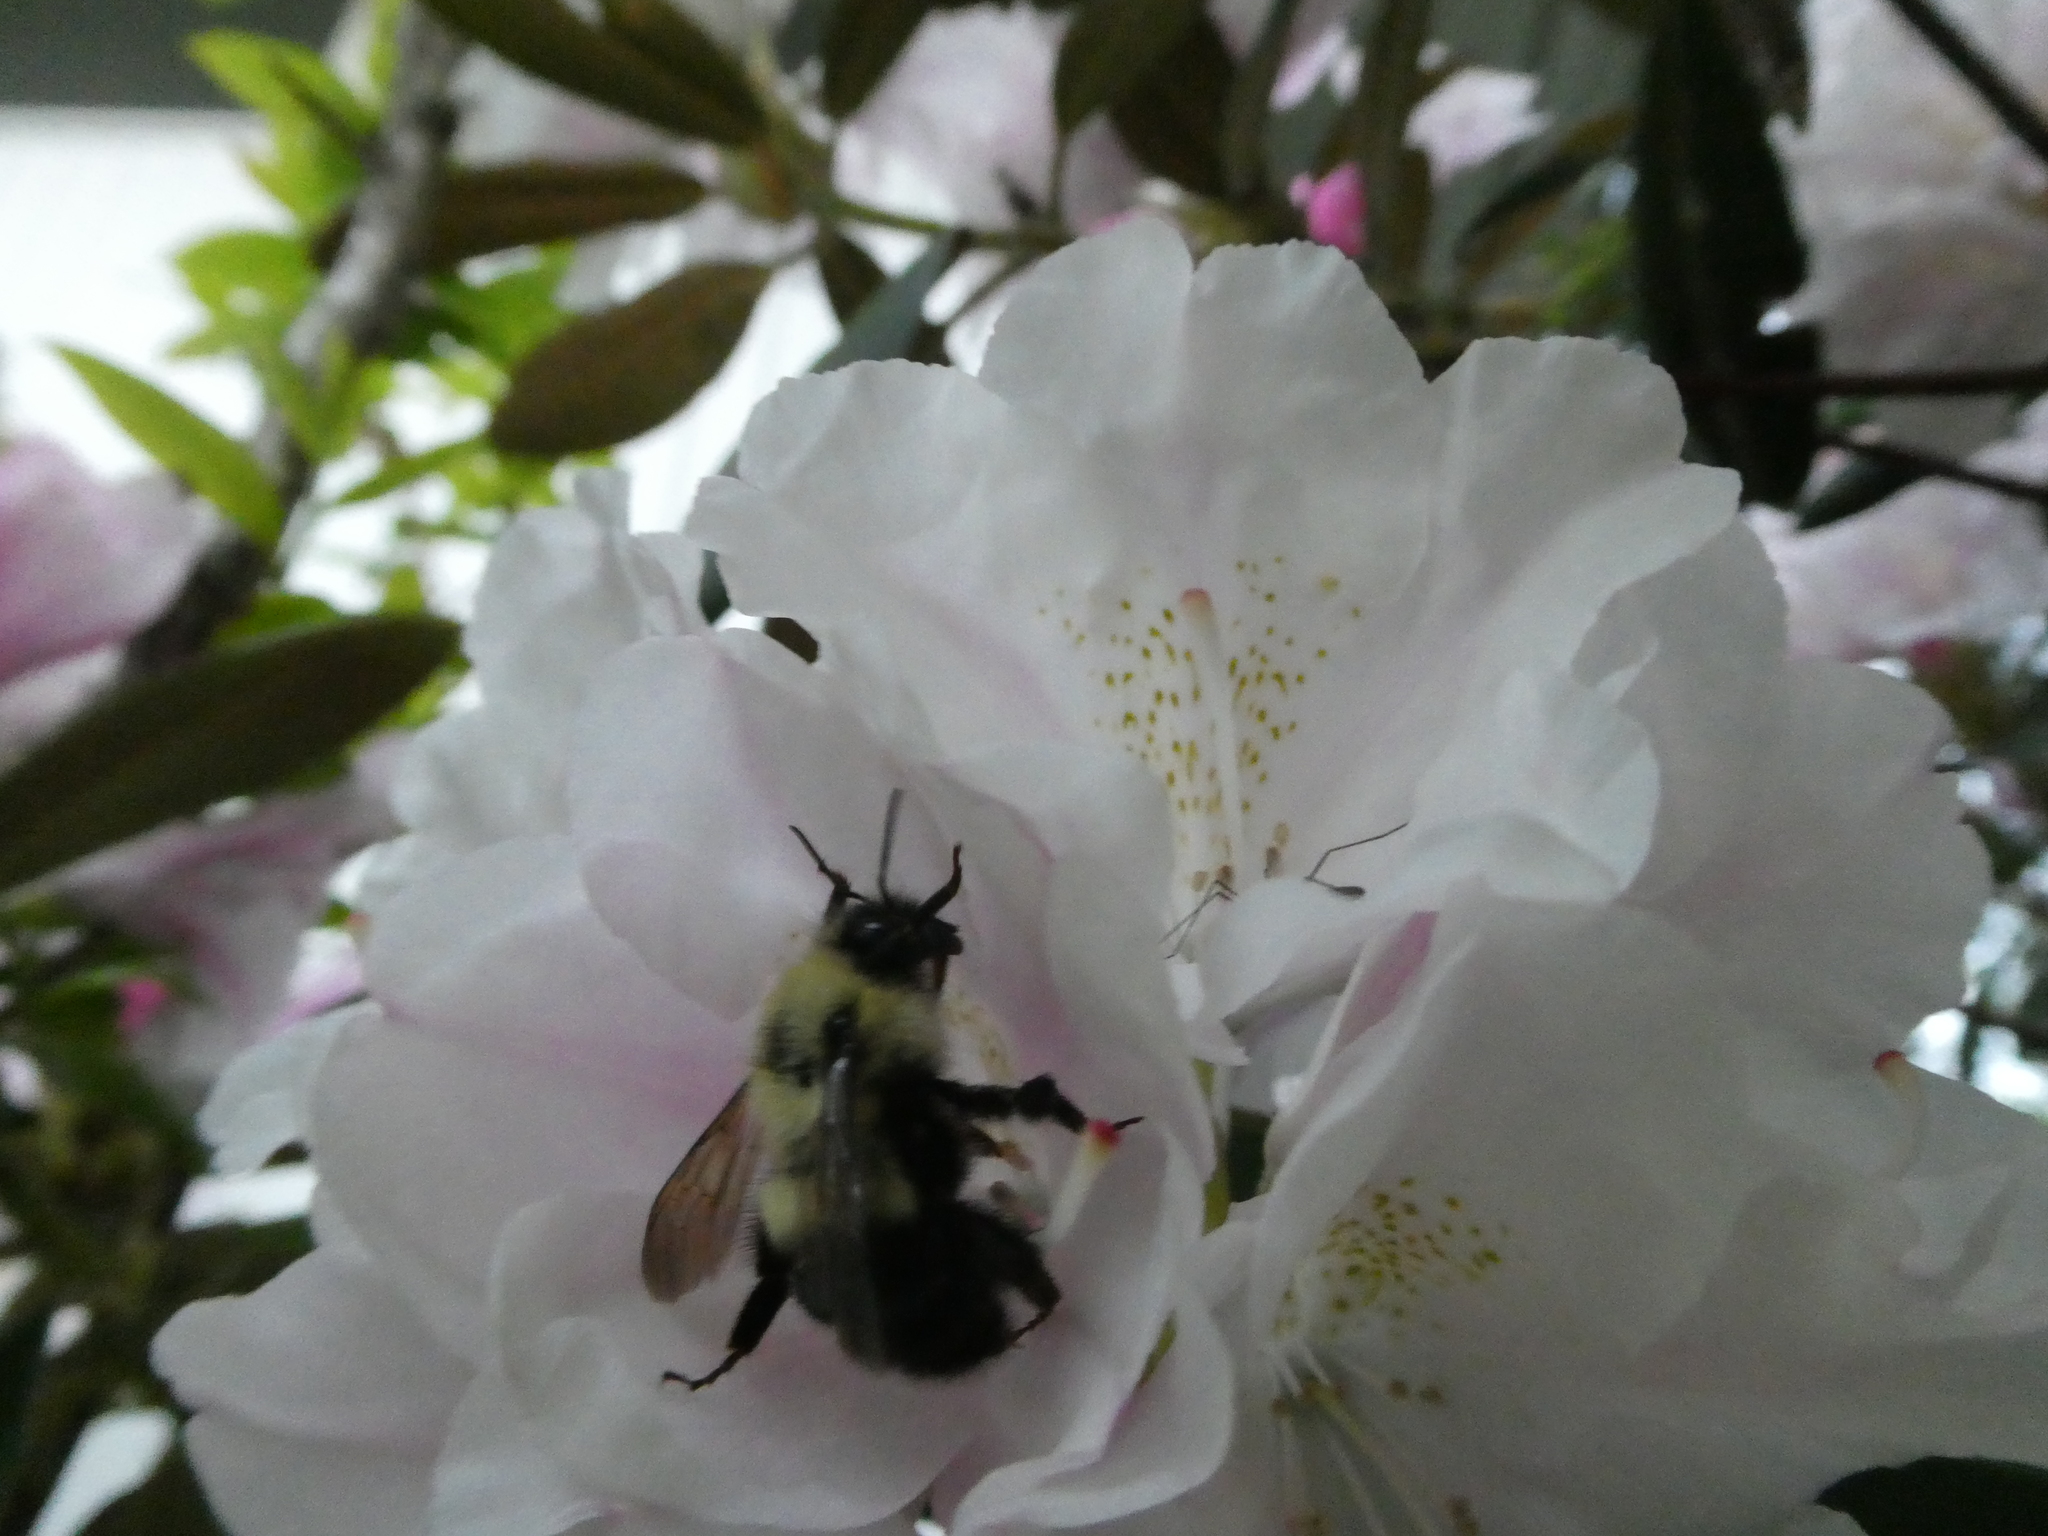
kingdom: Animalia
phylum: Arthropoda
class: Insecta
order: Hymenoptera
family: Apidae
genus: Pyrobombus
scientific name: Pyrobombus
